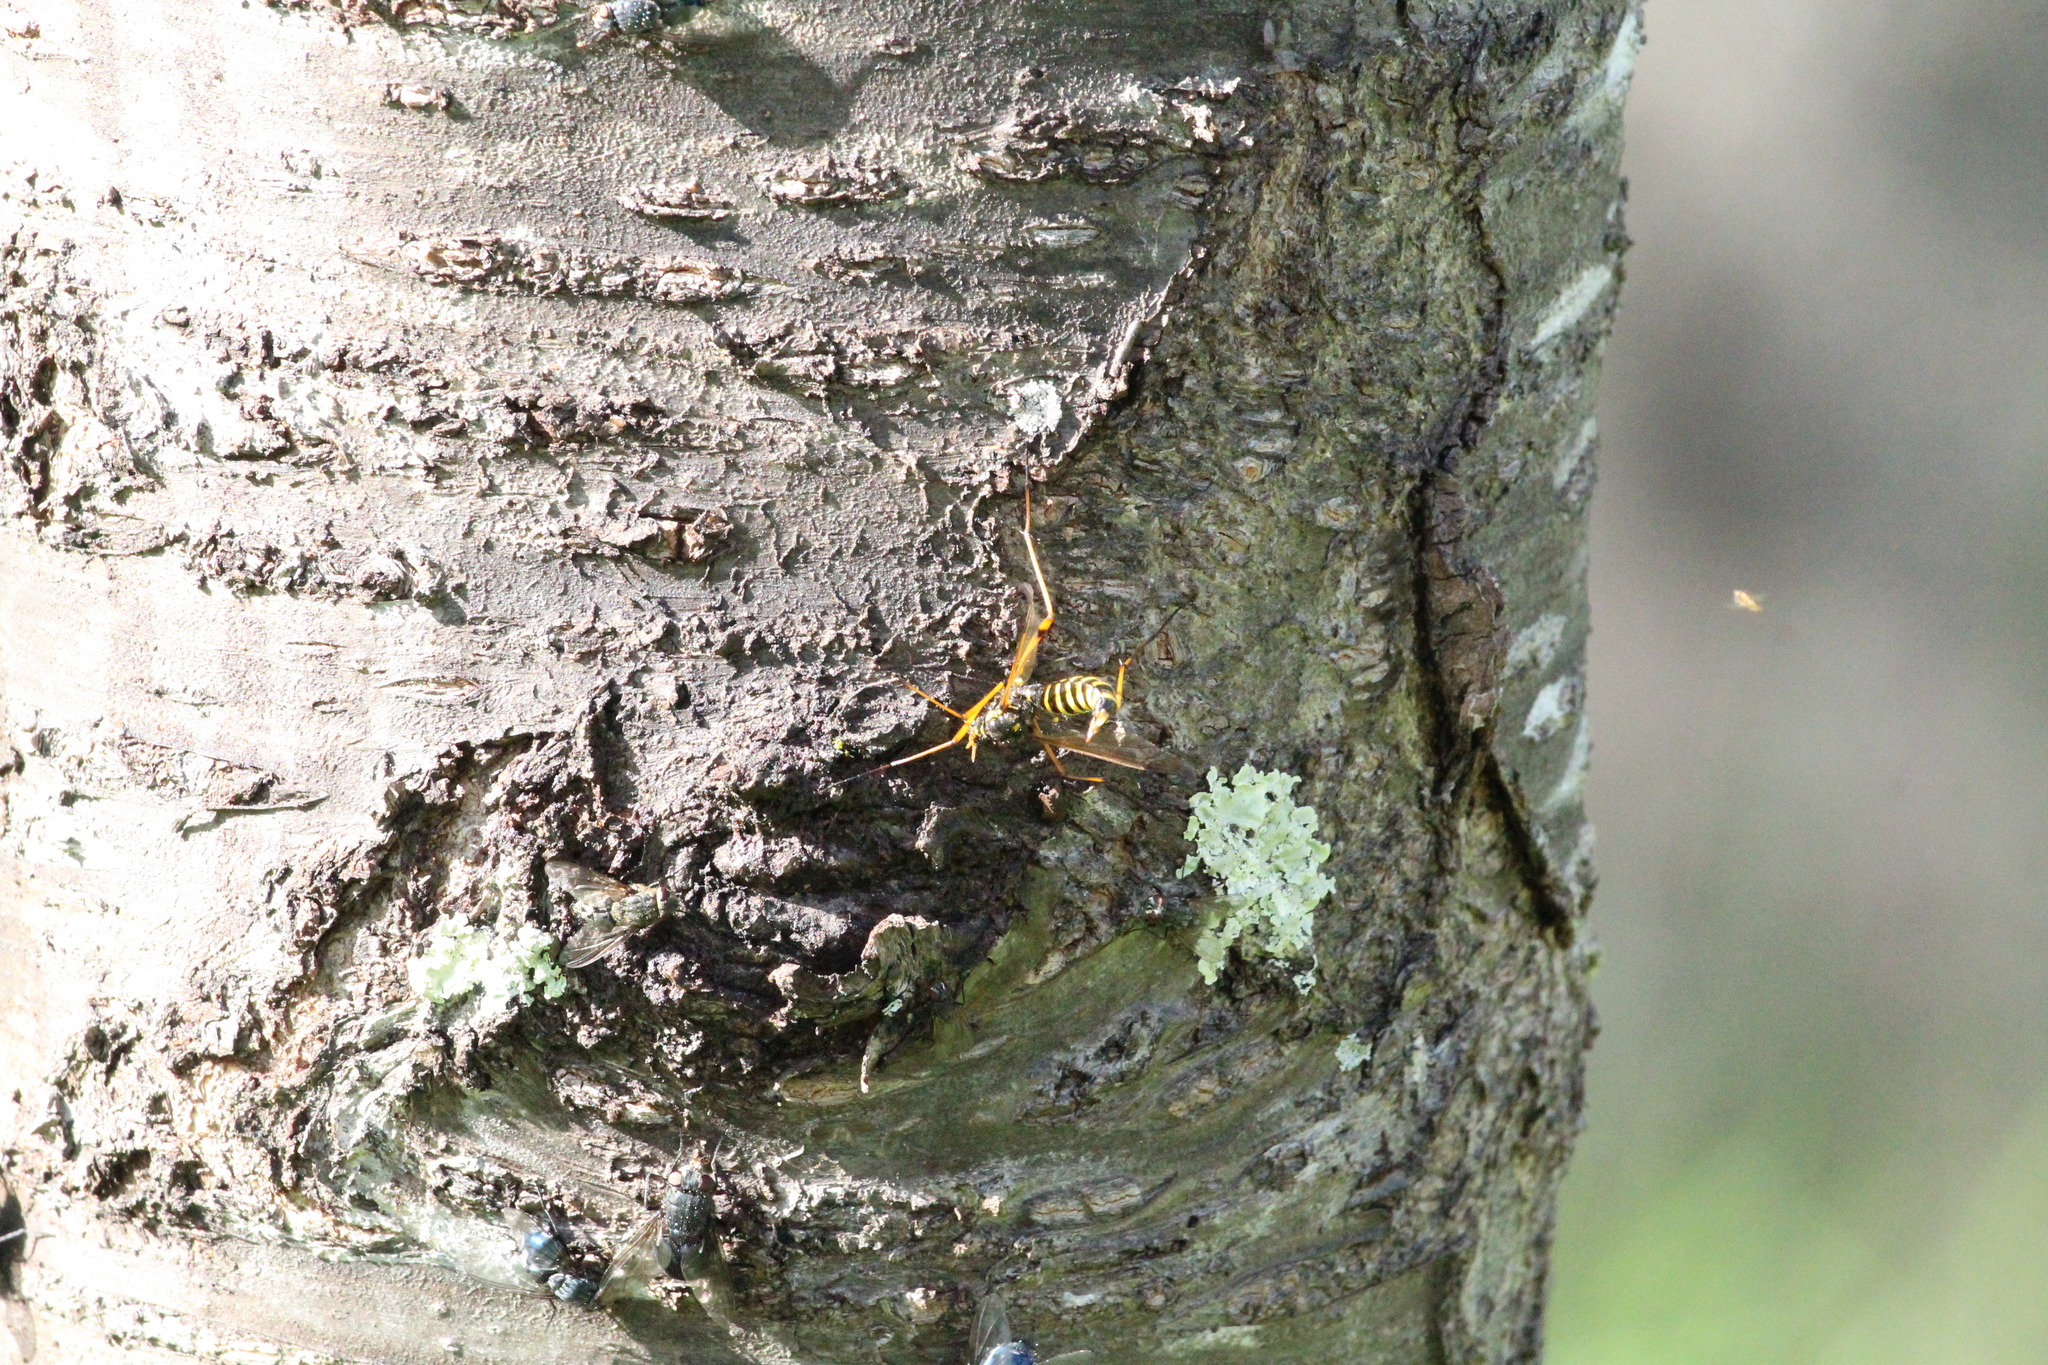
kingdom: Animalia
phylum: Arthropoda
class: Insecta
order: Diptera
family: Tipulidae
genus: Ctenophora
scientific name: Ctenophora flaveolata
